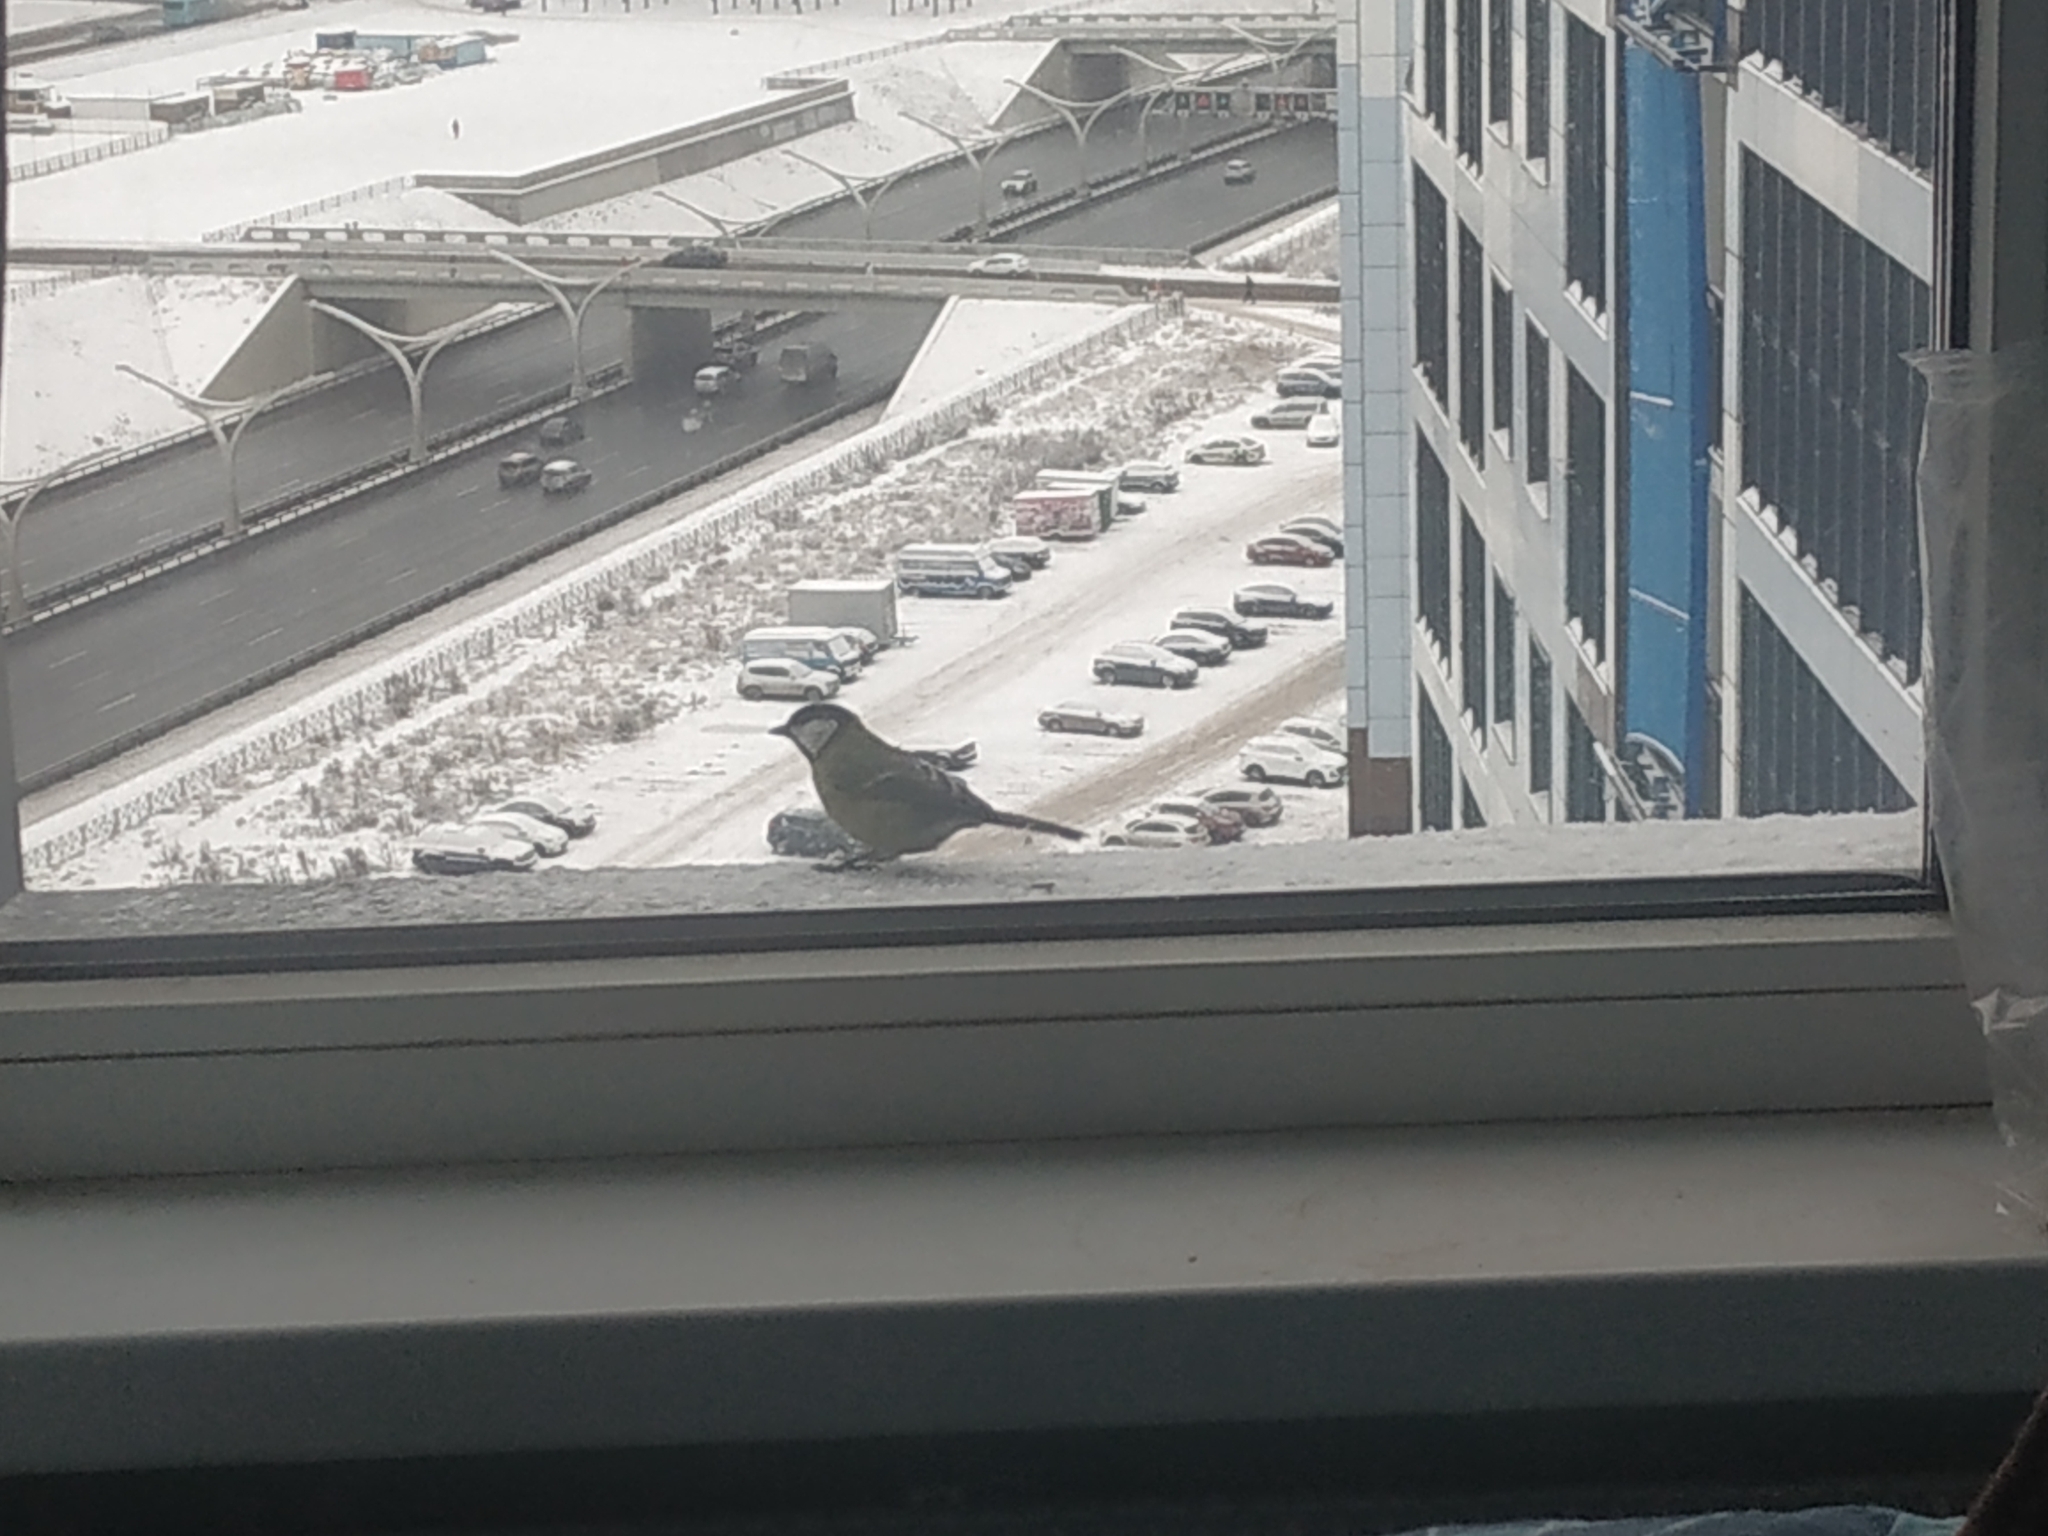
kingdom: Animalia
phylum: Chordata
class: Aves
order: Passeriformes
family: Paridae
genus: Parus
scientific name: Parus major
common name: Great tit
